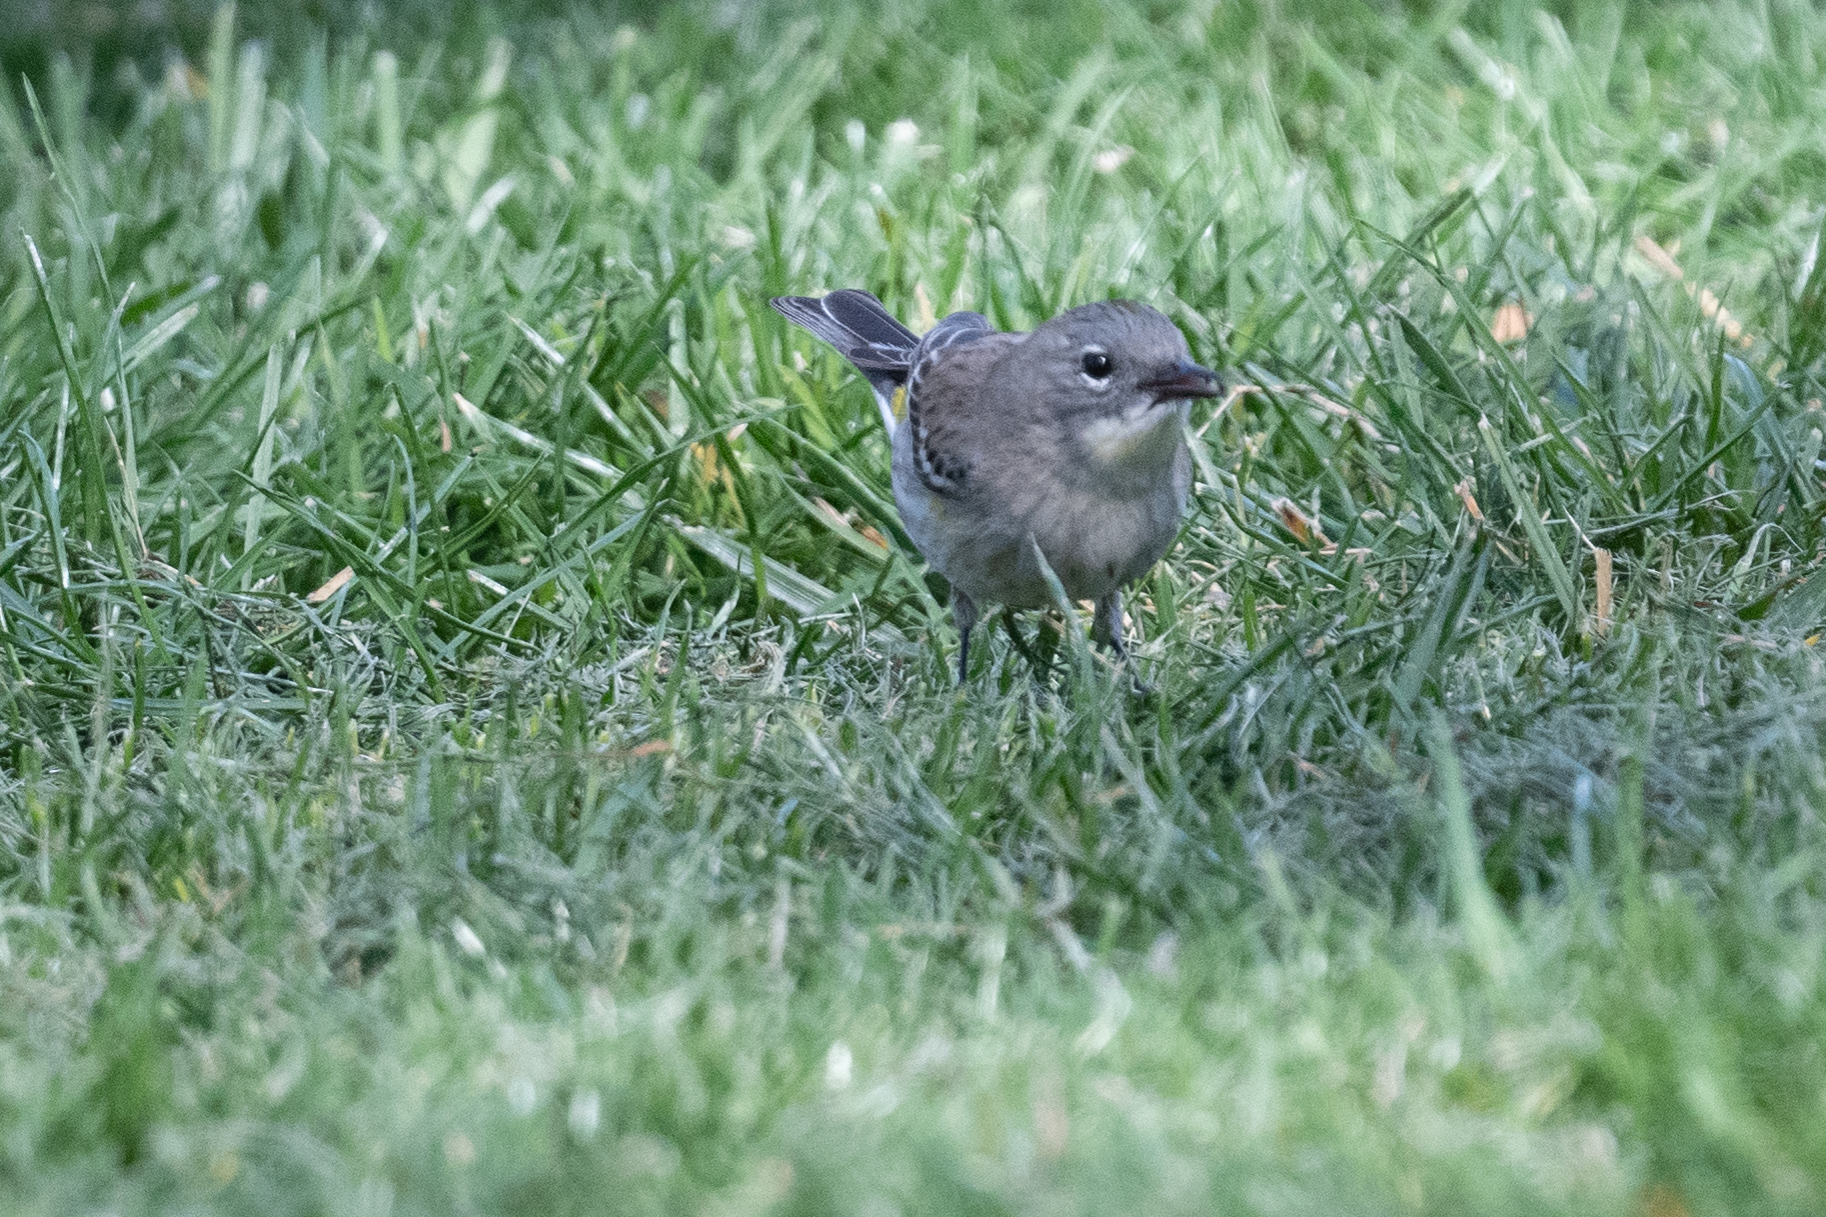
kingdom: Animalia
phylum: Chordata
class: Aves
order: Passeriformes
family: Parulidae
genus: Setophaga
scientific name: Setophaga coronata
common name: Myrtle warbler
